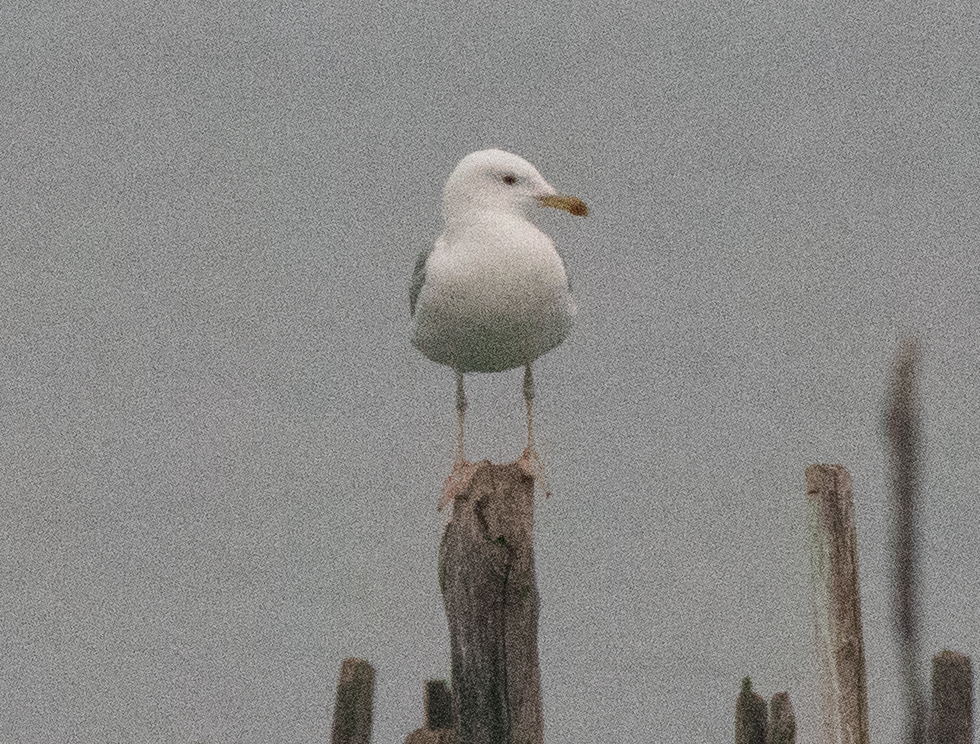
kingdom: Animalia
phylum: Chordata
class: Aves
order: Charadriiformes
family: Laridae
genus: Larus
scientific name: Larus cachinnans
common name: Caspian gull
